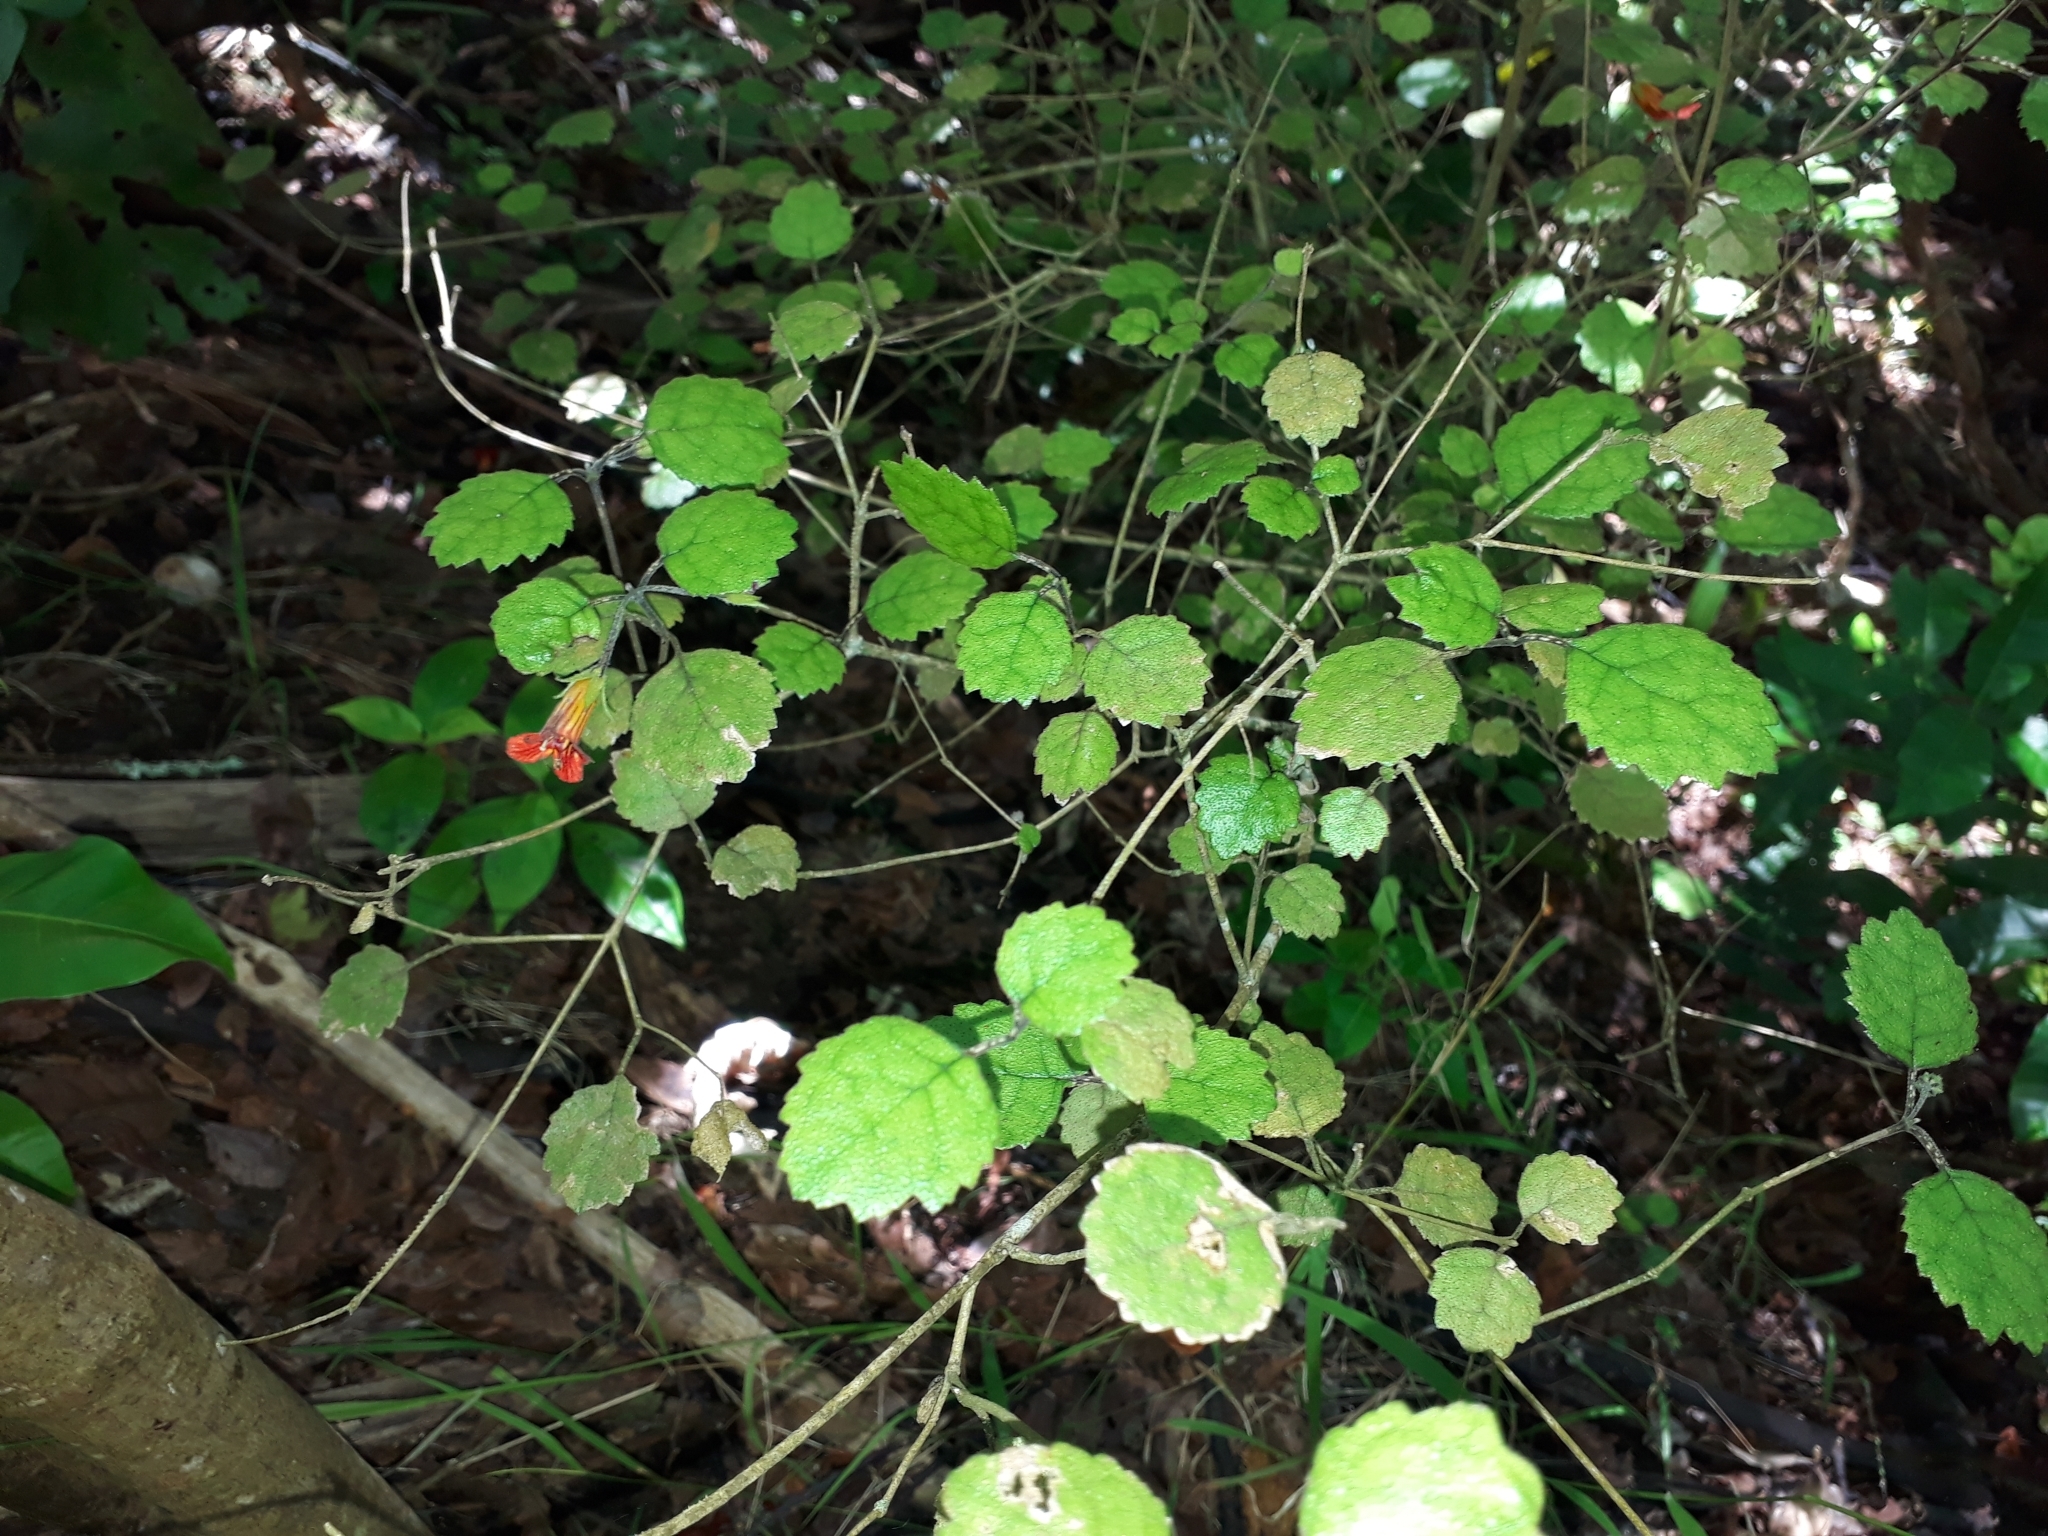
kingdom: Plantae
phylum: Tracheophyta
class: Magnoliopsida
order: Lamiales
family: Gesneriaceae
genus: Rhabdothamnus
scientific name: Rhabdothamnus solandri
